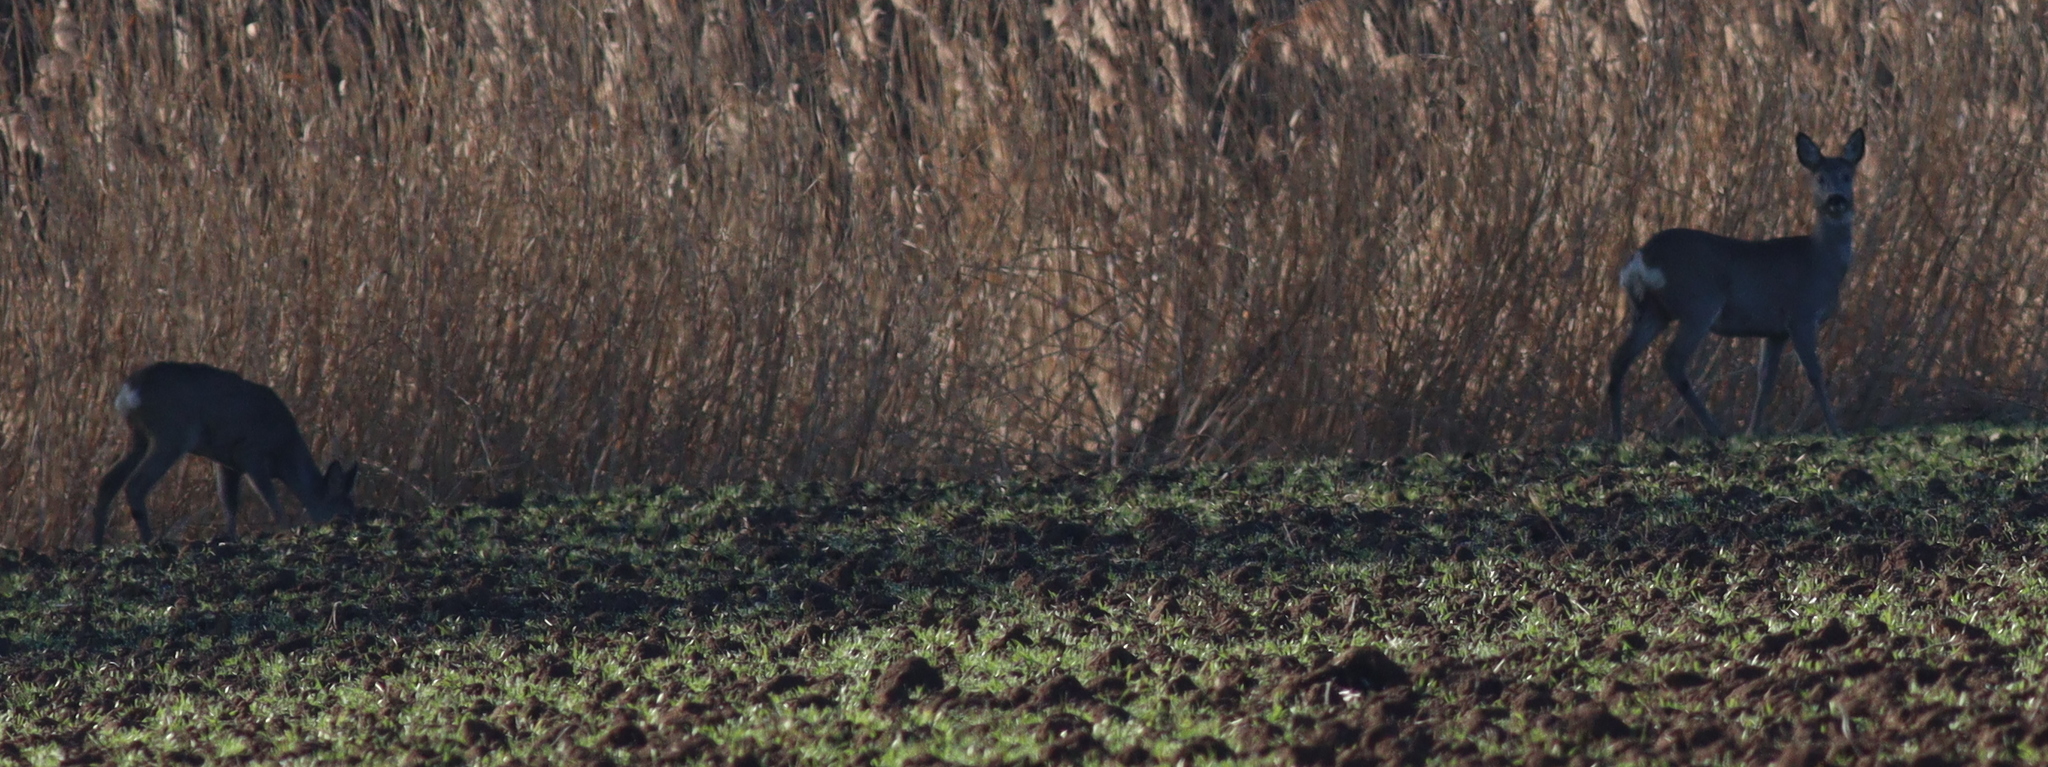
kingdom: Animalia
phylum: Chordata
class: Mammalia
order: Artiodactyla
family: Cervidae
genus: Capreolus
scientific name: Capreolus capreolus
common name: Western roe deer
